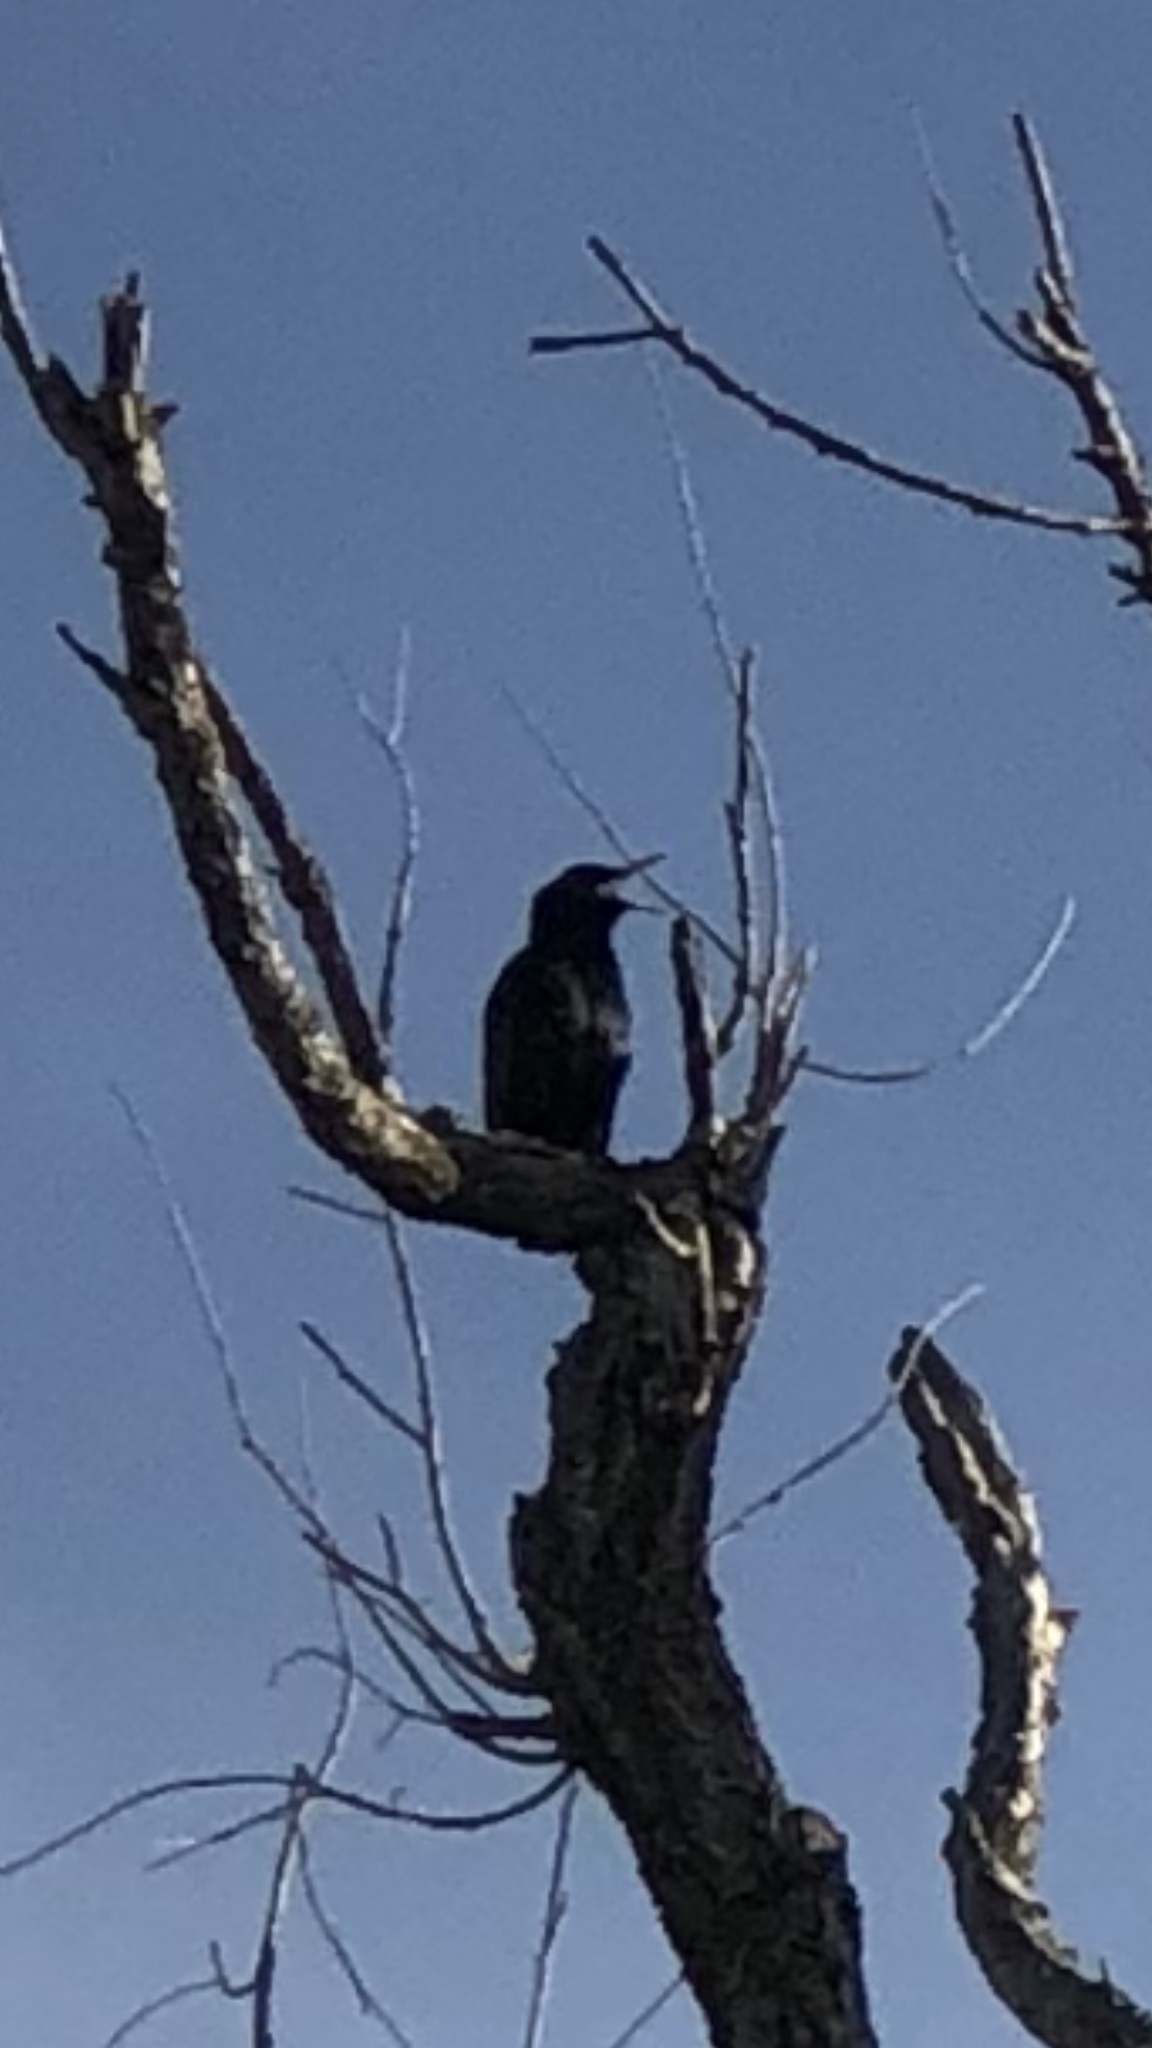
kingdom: Animalia
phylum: Chordata
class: Aves
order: Passeriformes
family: Sturnidae
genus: Sturnus
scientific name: Sturnus vulgaris
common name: Common starling
